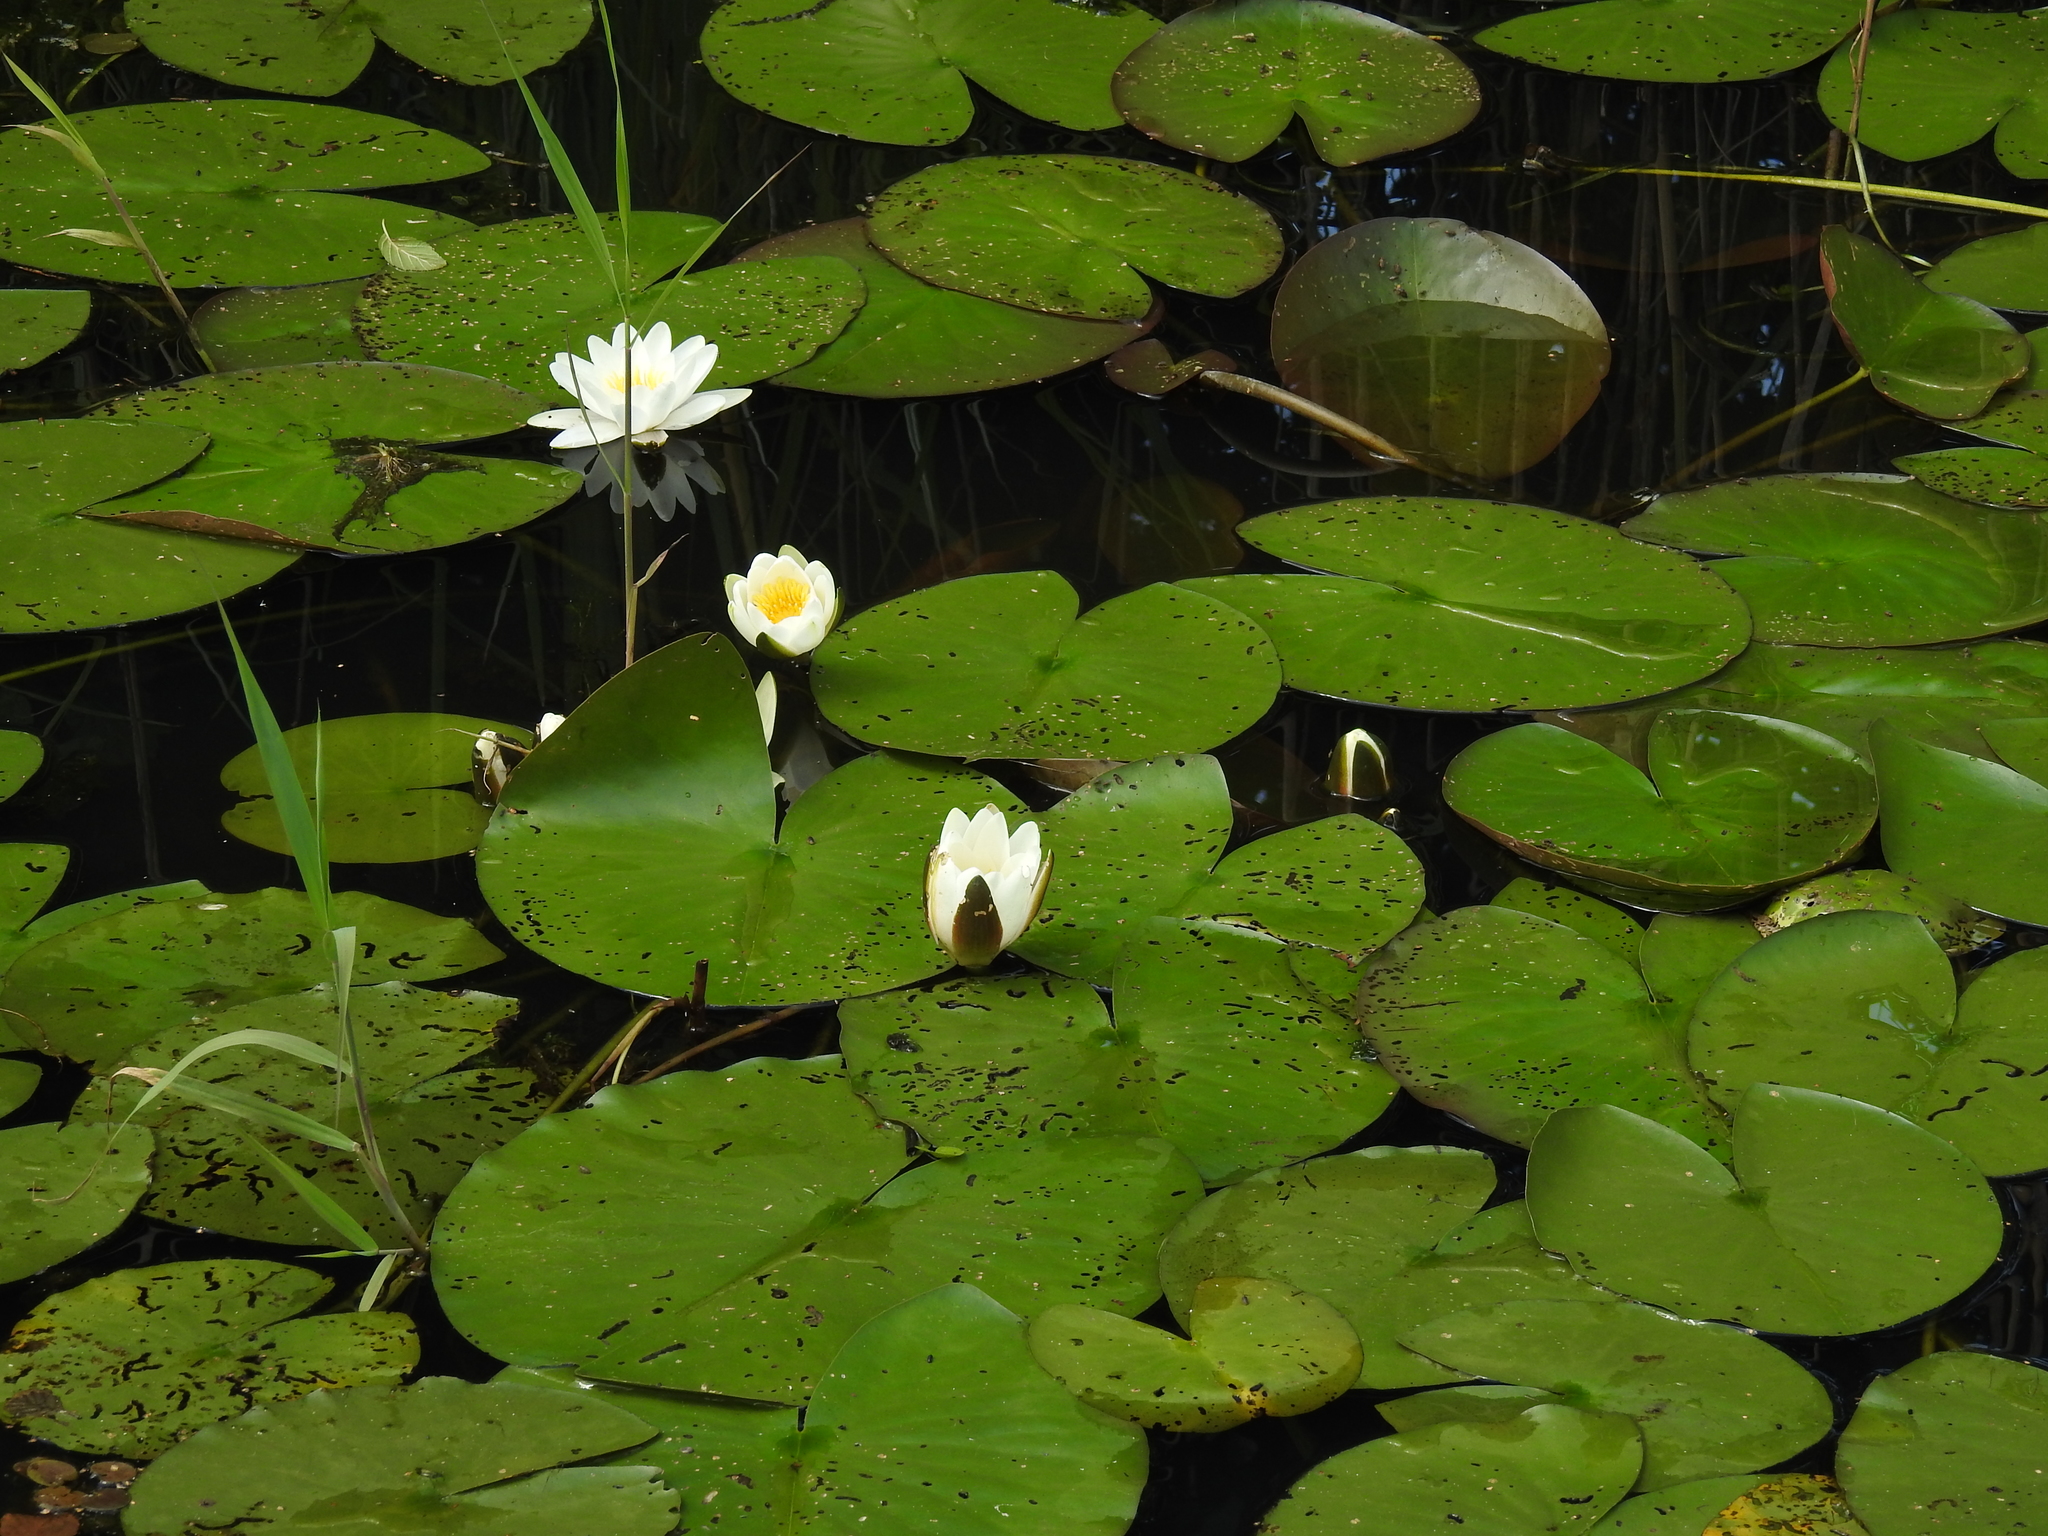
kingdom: Plantae
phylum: Tracheophyta
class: Magnoliopsida
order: Nymphaeales
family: Nymphaeaceae
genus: Nymphaea
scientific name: Nymphaea alba
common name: White water-lily
